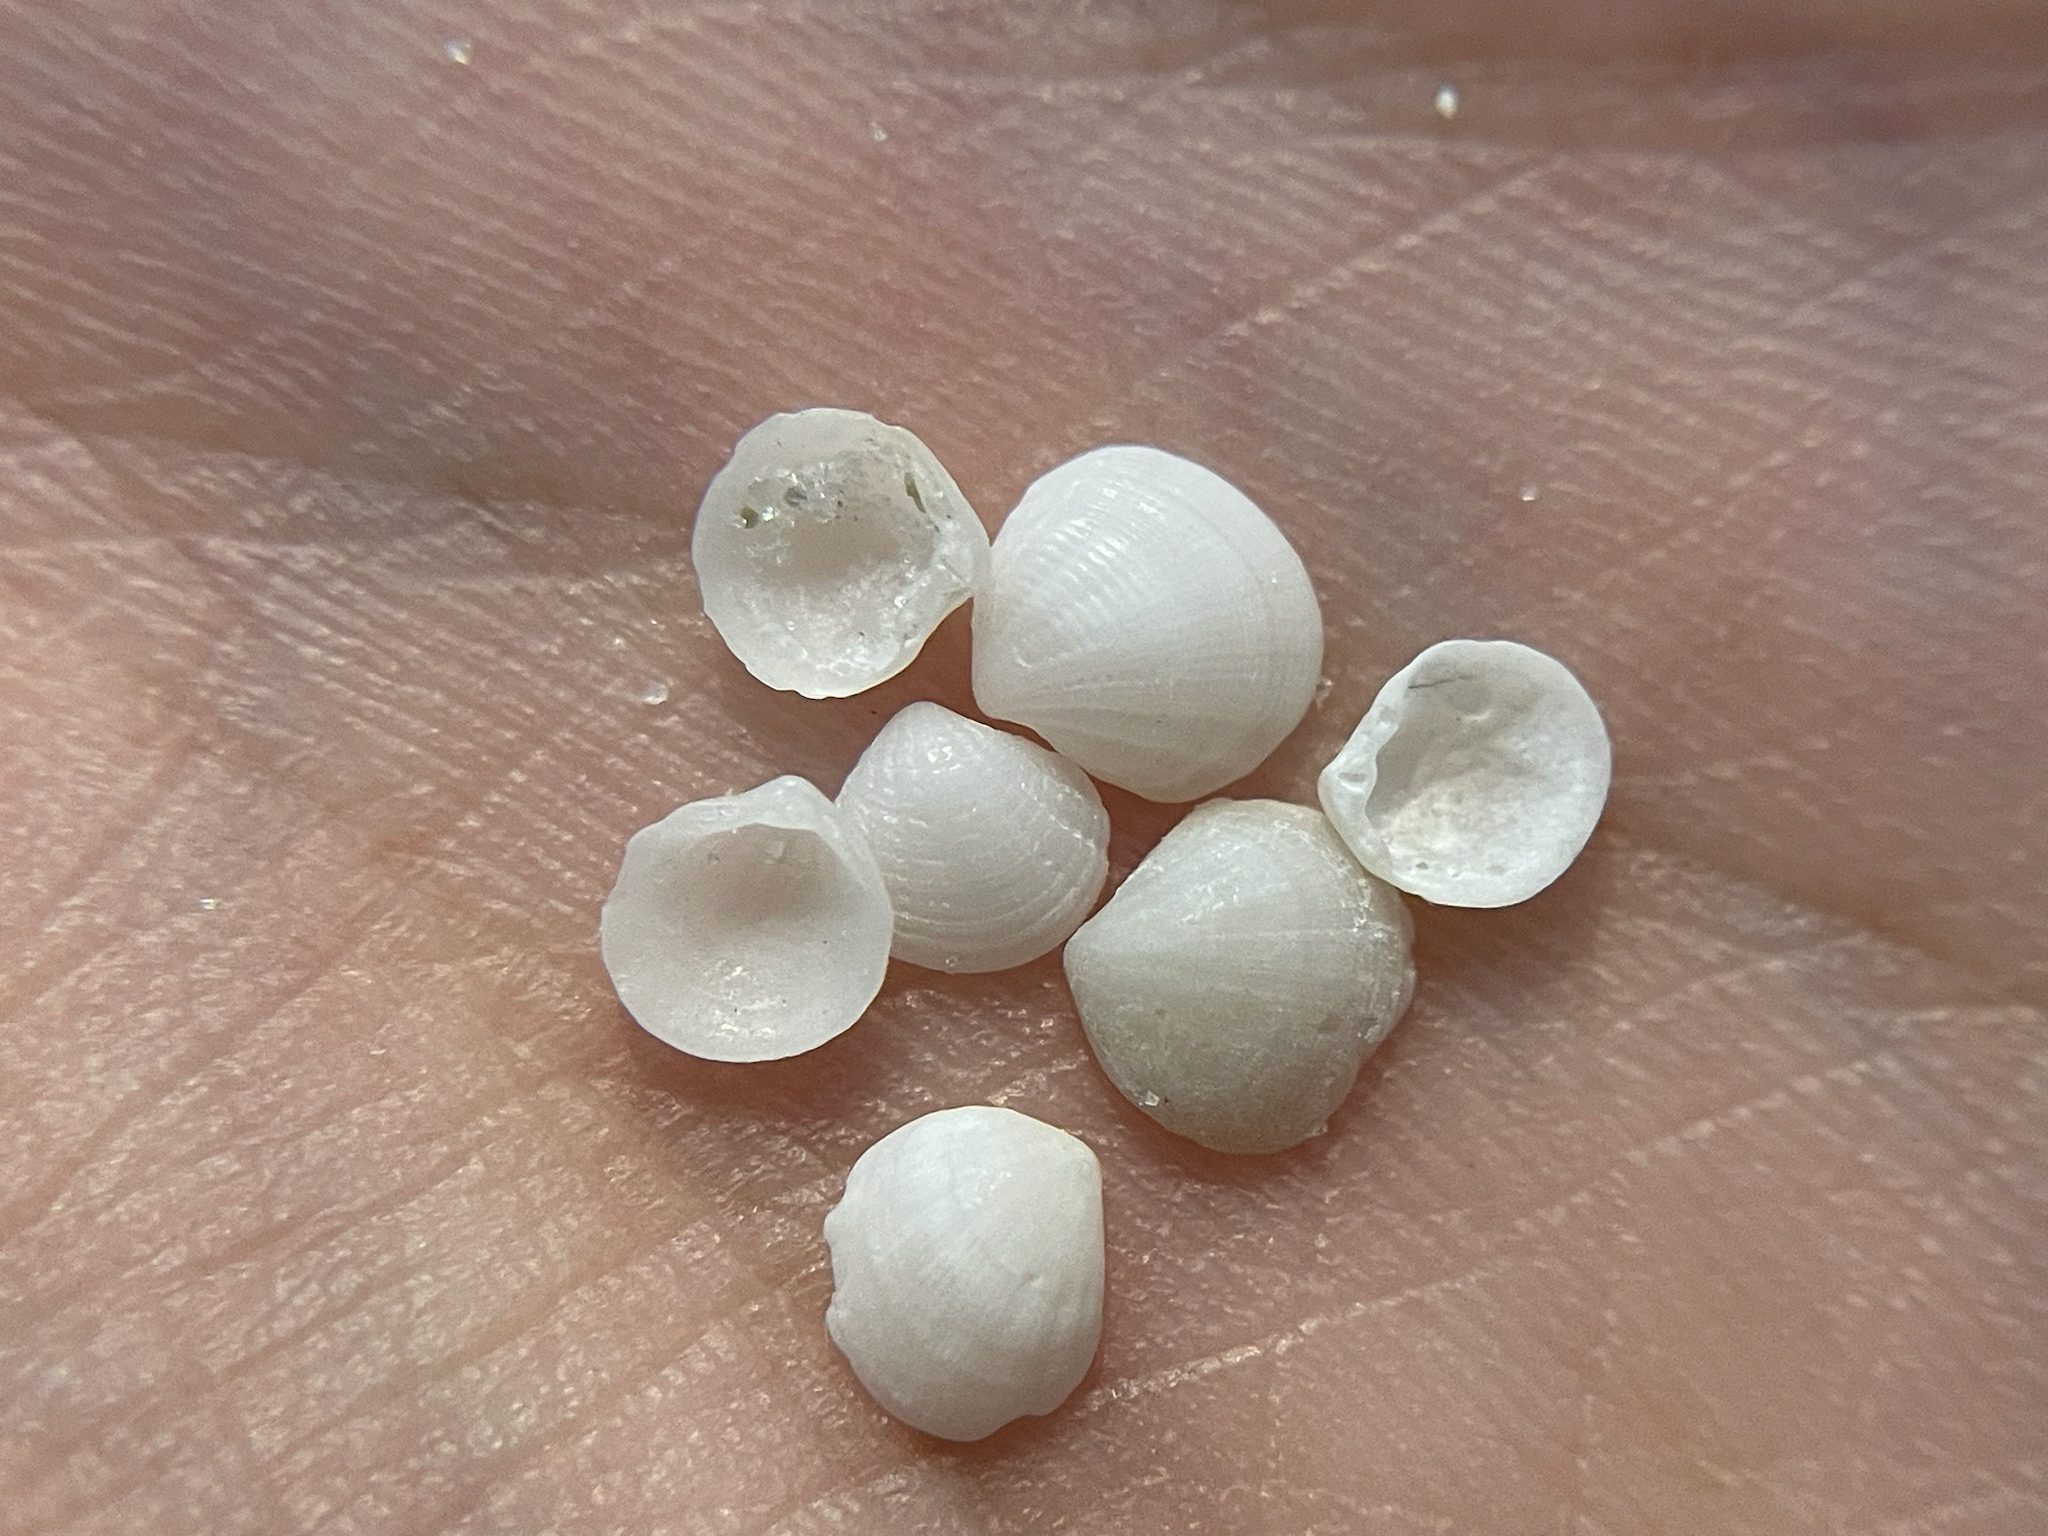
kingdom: Animalia
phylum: Mollusca
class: Bivalvia
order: Lucinida
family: Lucinidae
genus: Clathrolucina
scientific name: Clathrolucina costata
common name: Costate lucine
